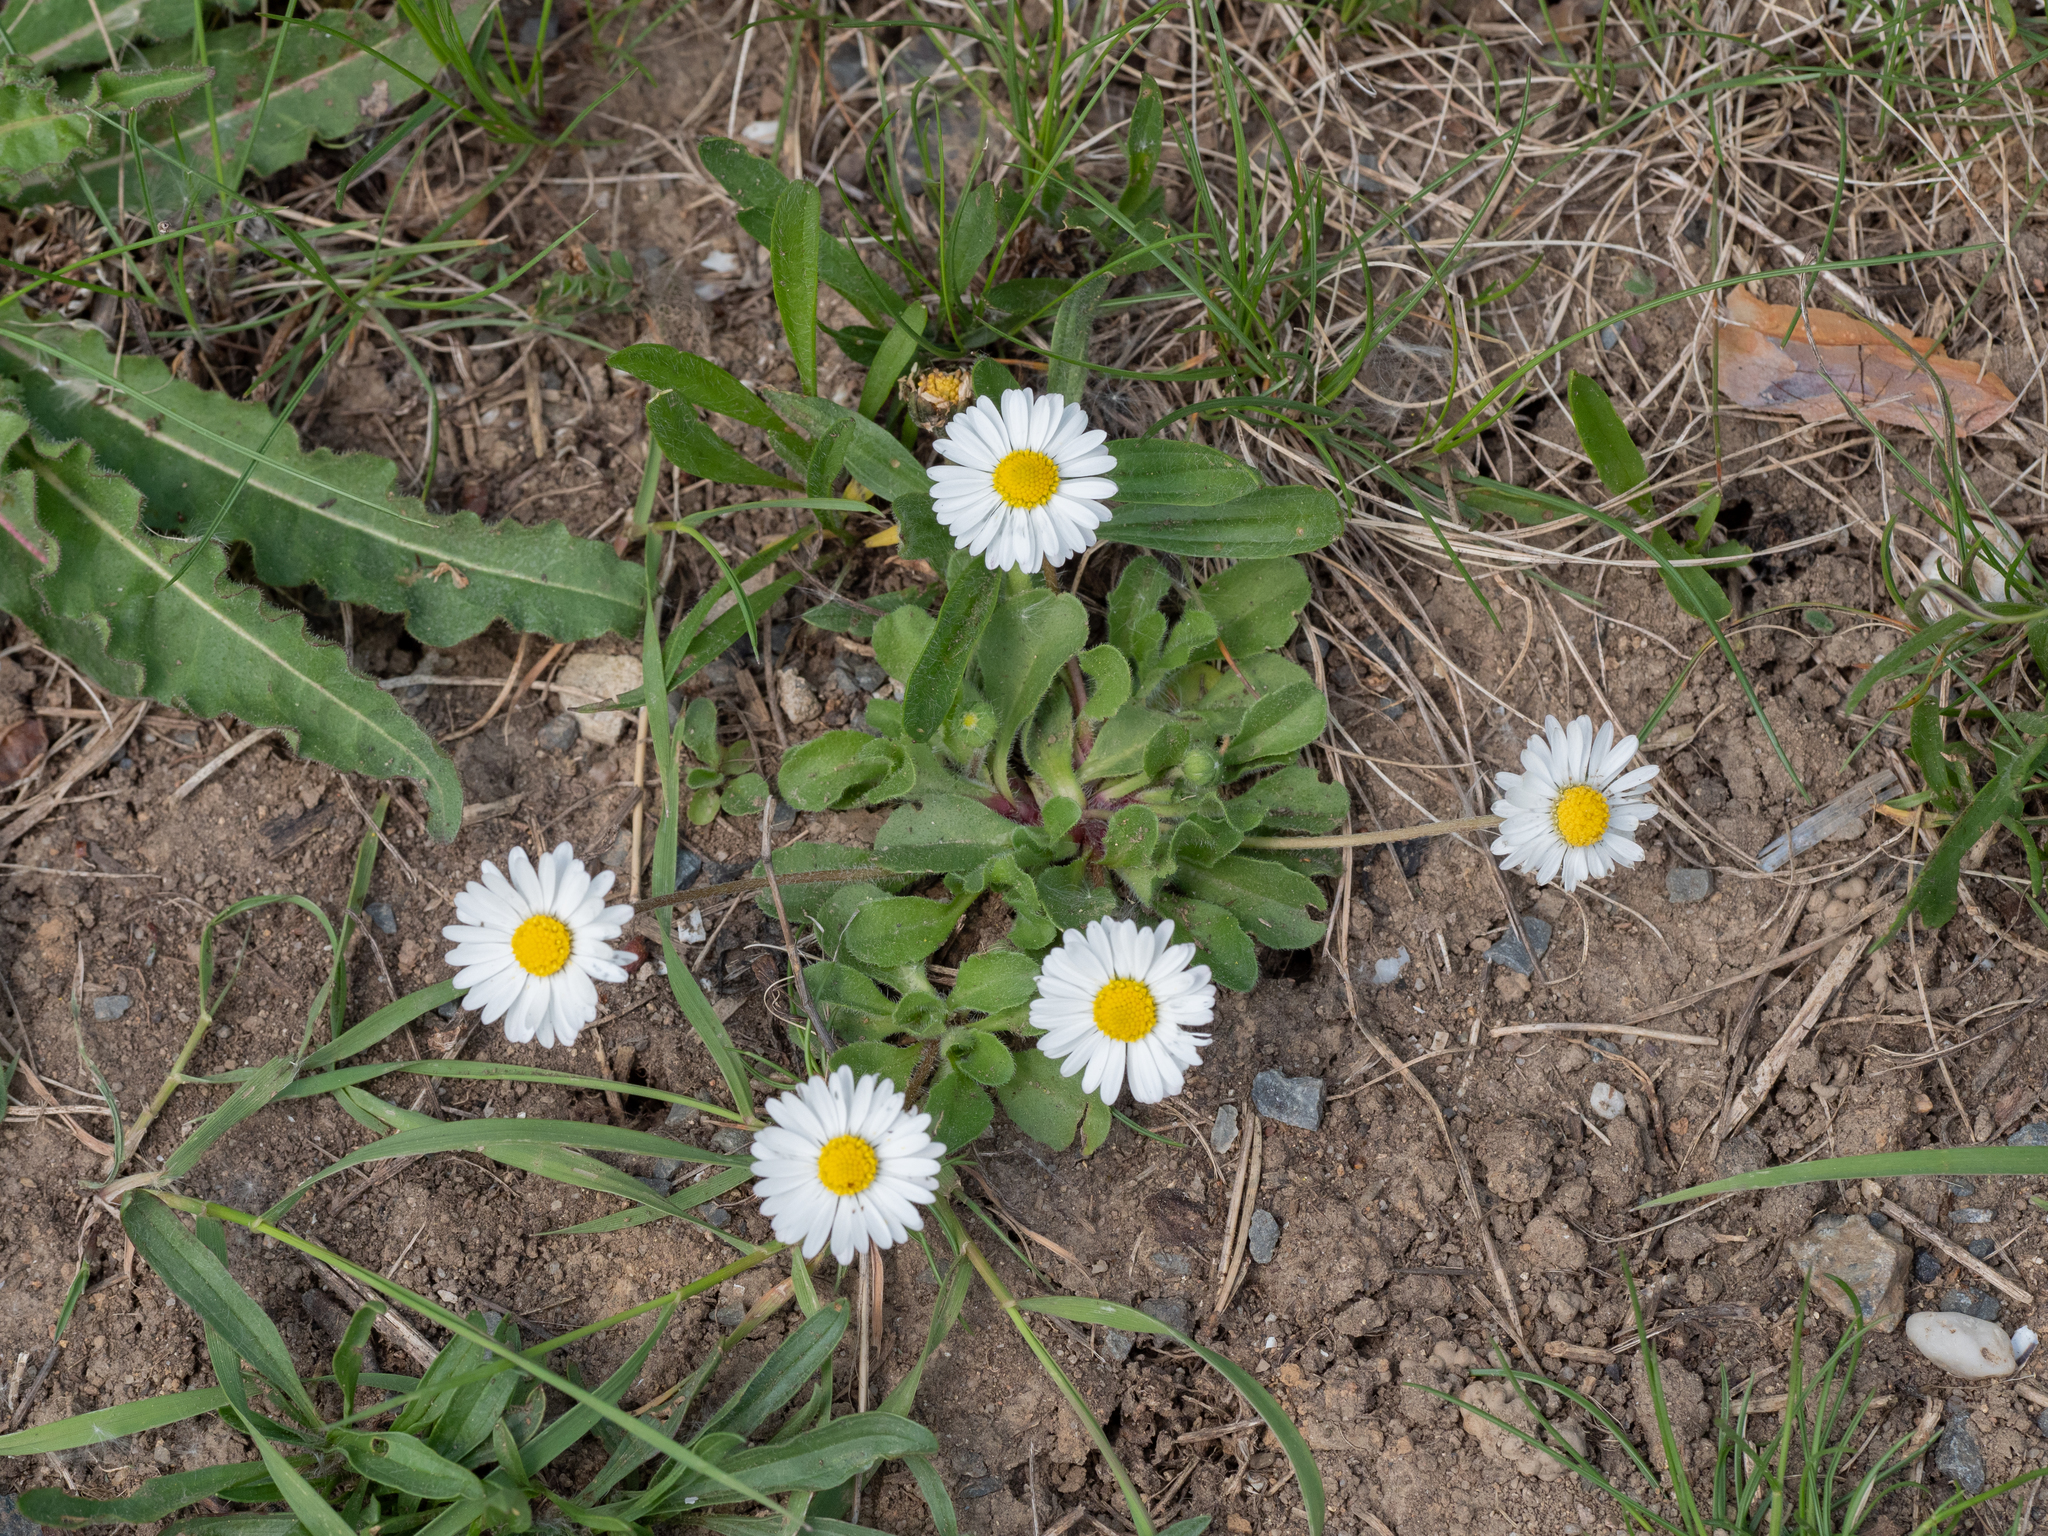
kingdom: Plantae
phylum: Tracheophyta
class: Magnoliopsida
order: Asterales
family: Asteraceae
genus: Bellis
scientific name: Bellis perennis
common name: Lawndaisy
